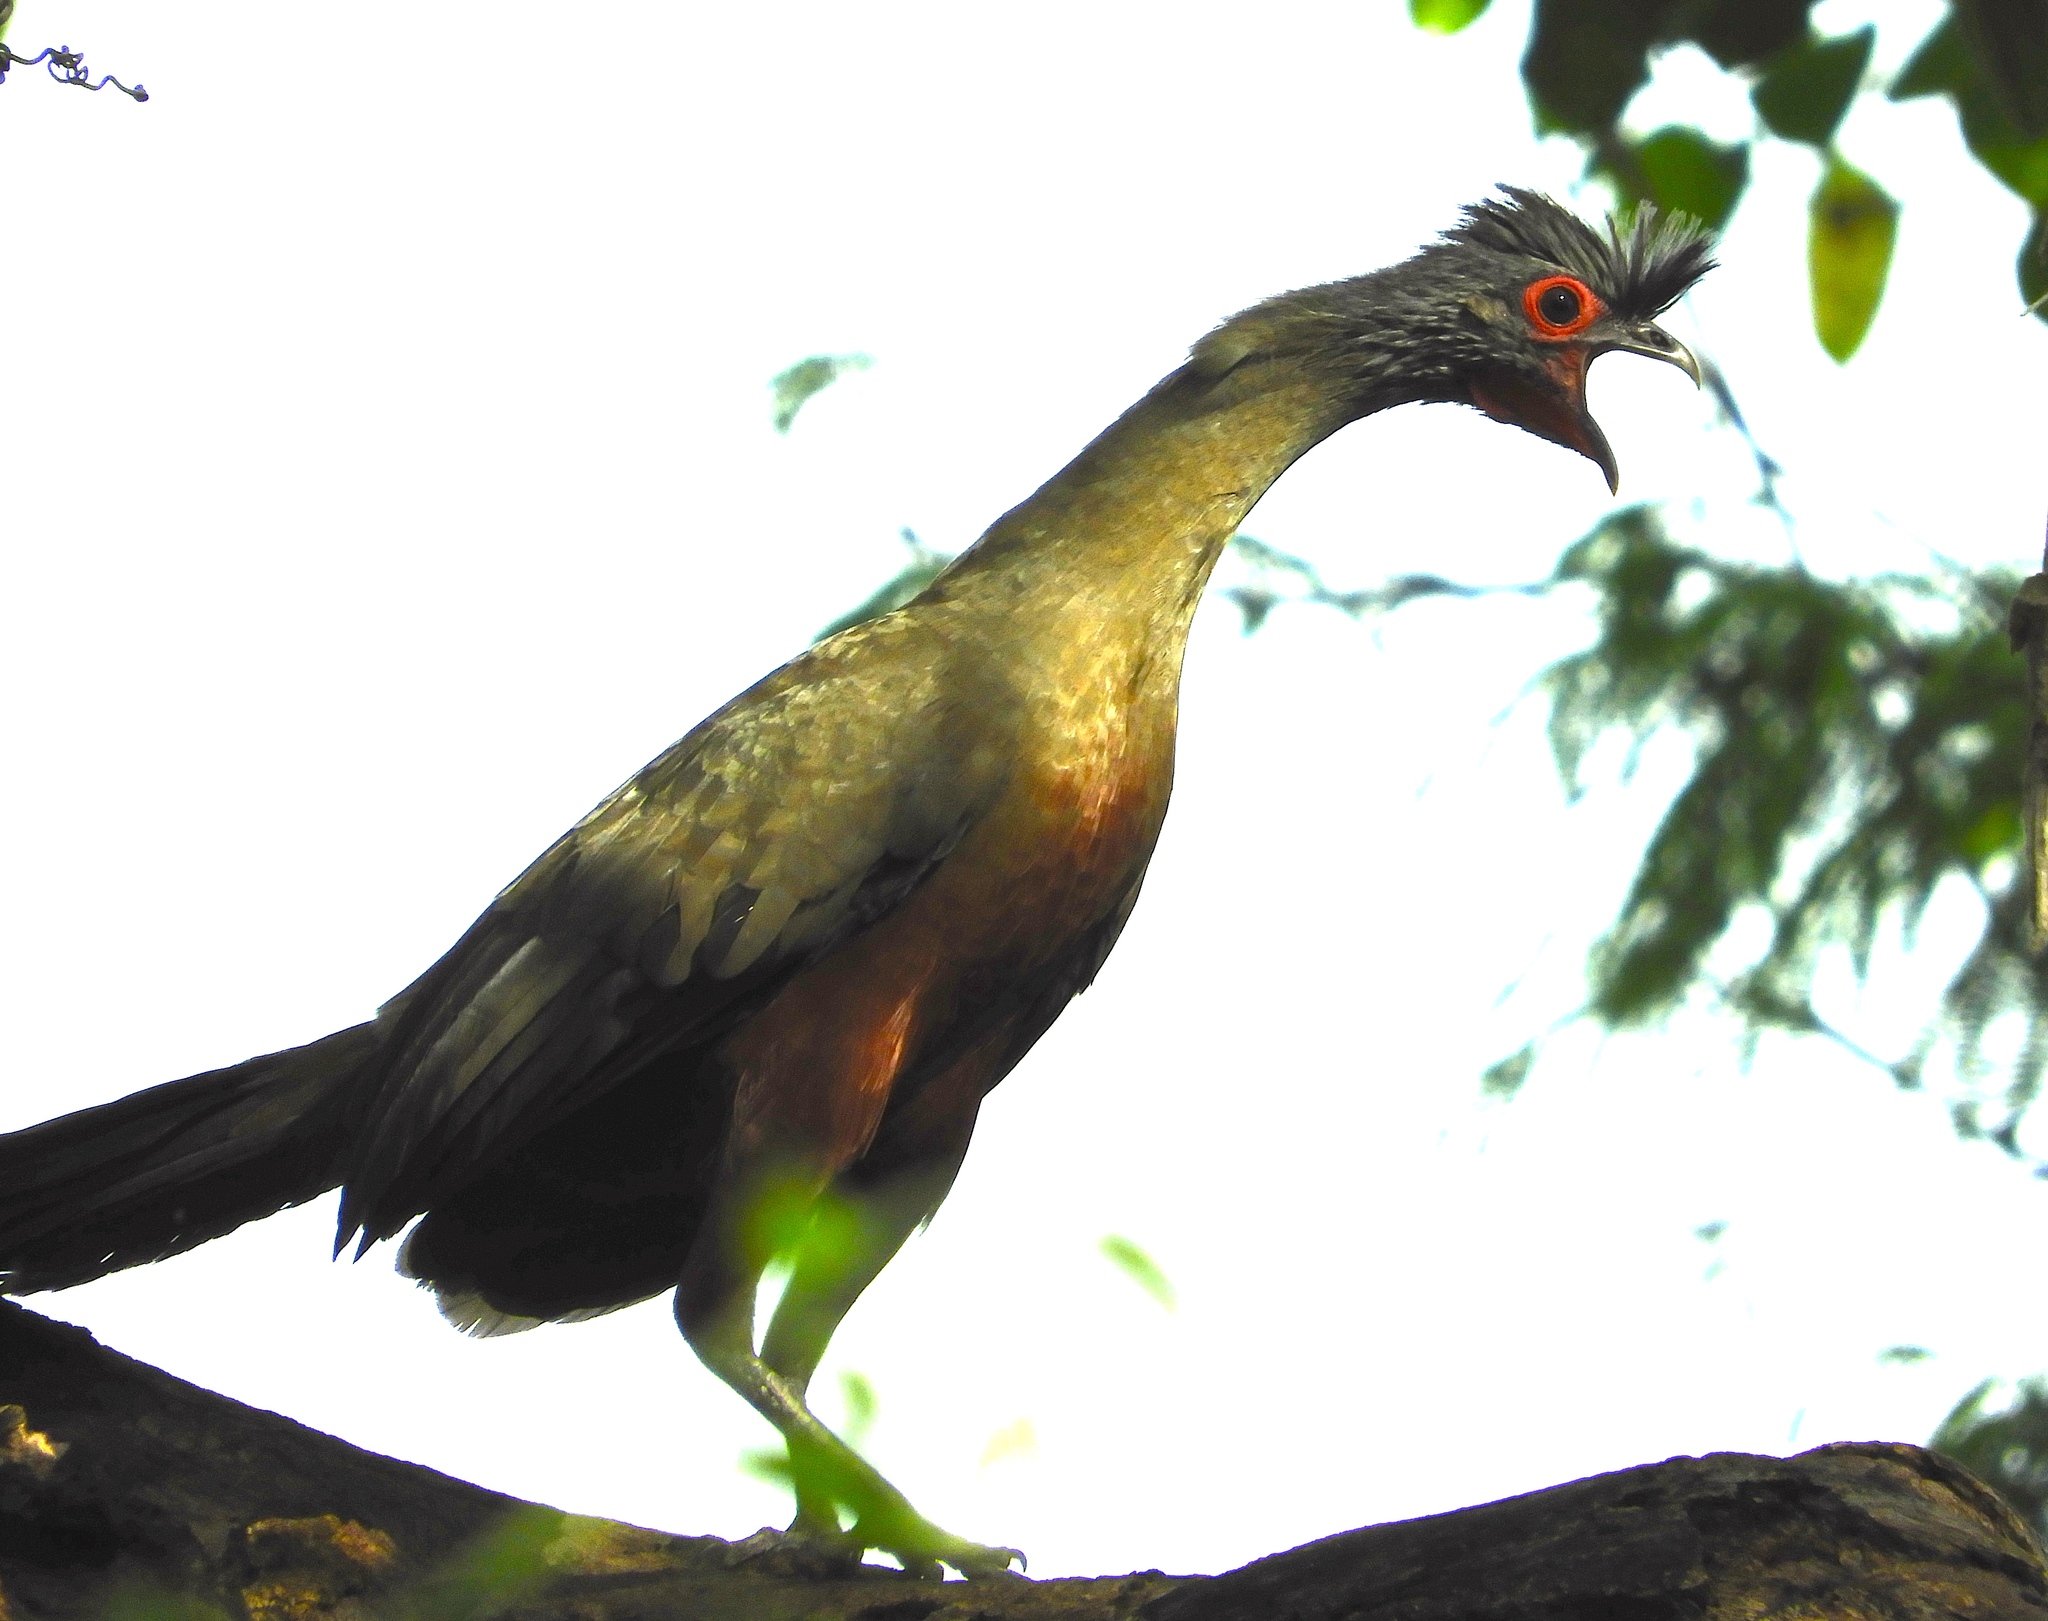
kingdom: Animalia
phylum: Chordata
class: Aves
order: Galliformes
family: Cracidae
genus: Ortalis
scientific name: Ortalis wagleri
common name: Rufous-bellied chachalaca
